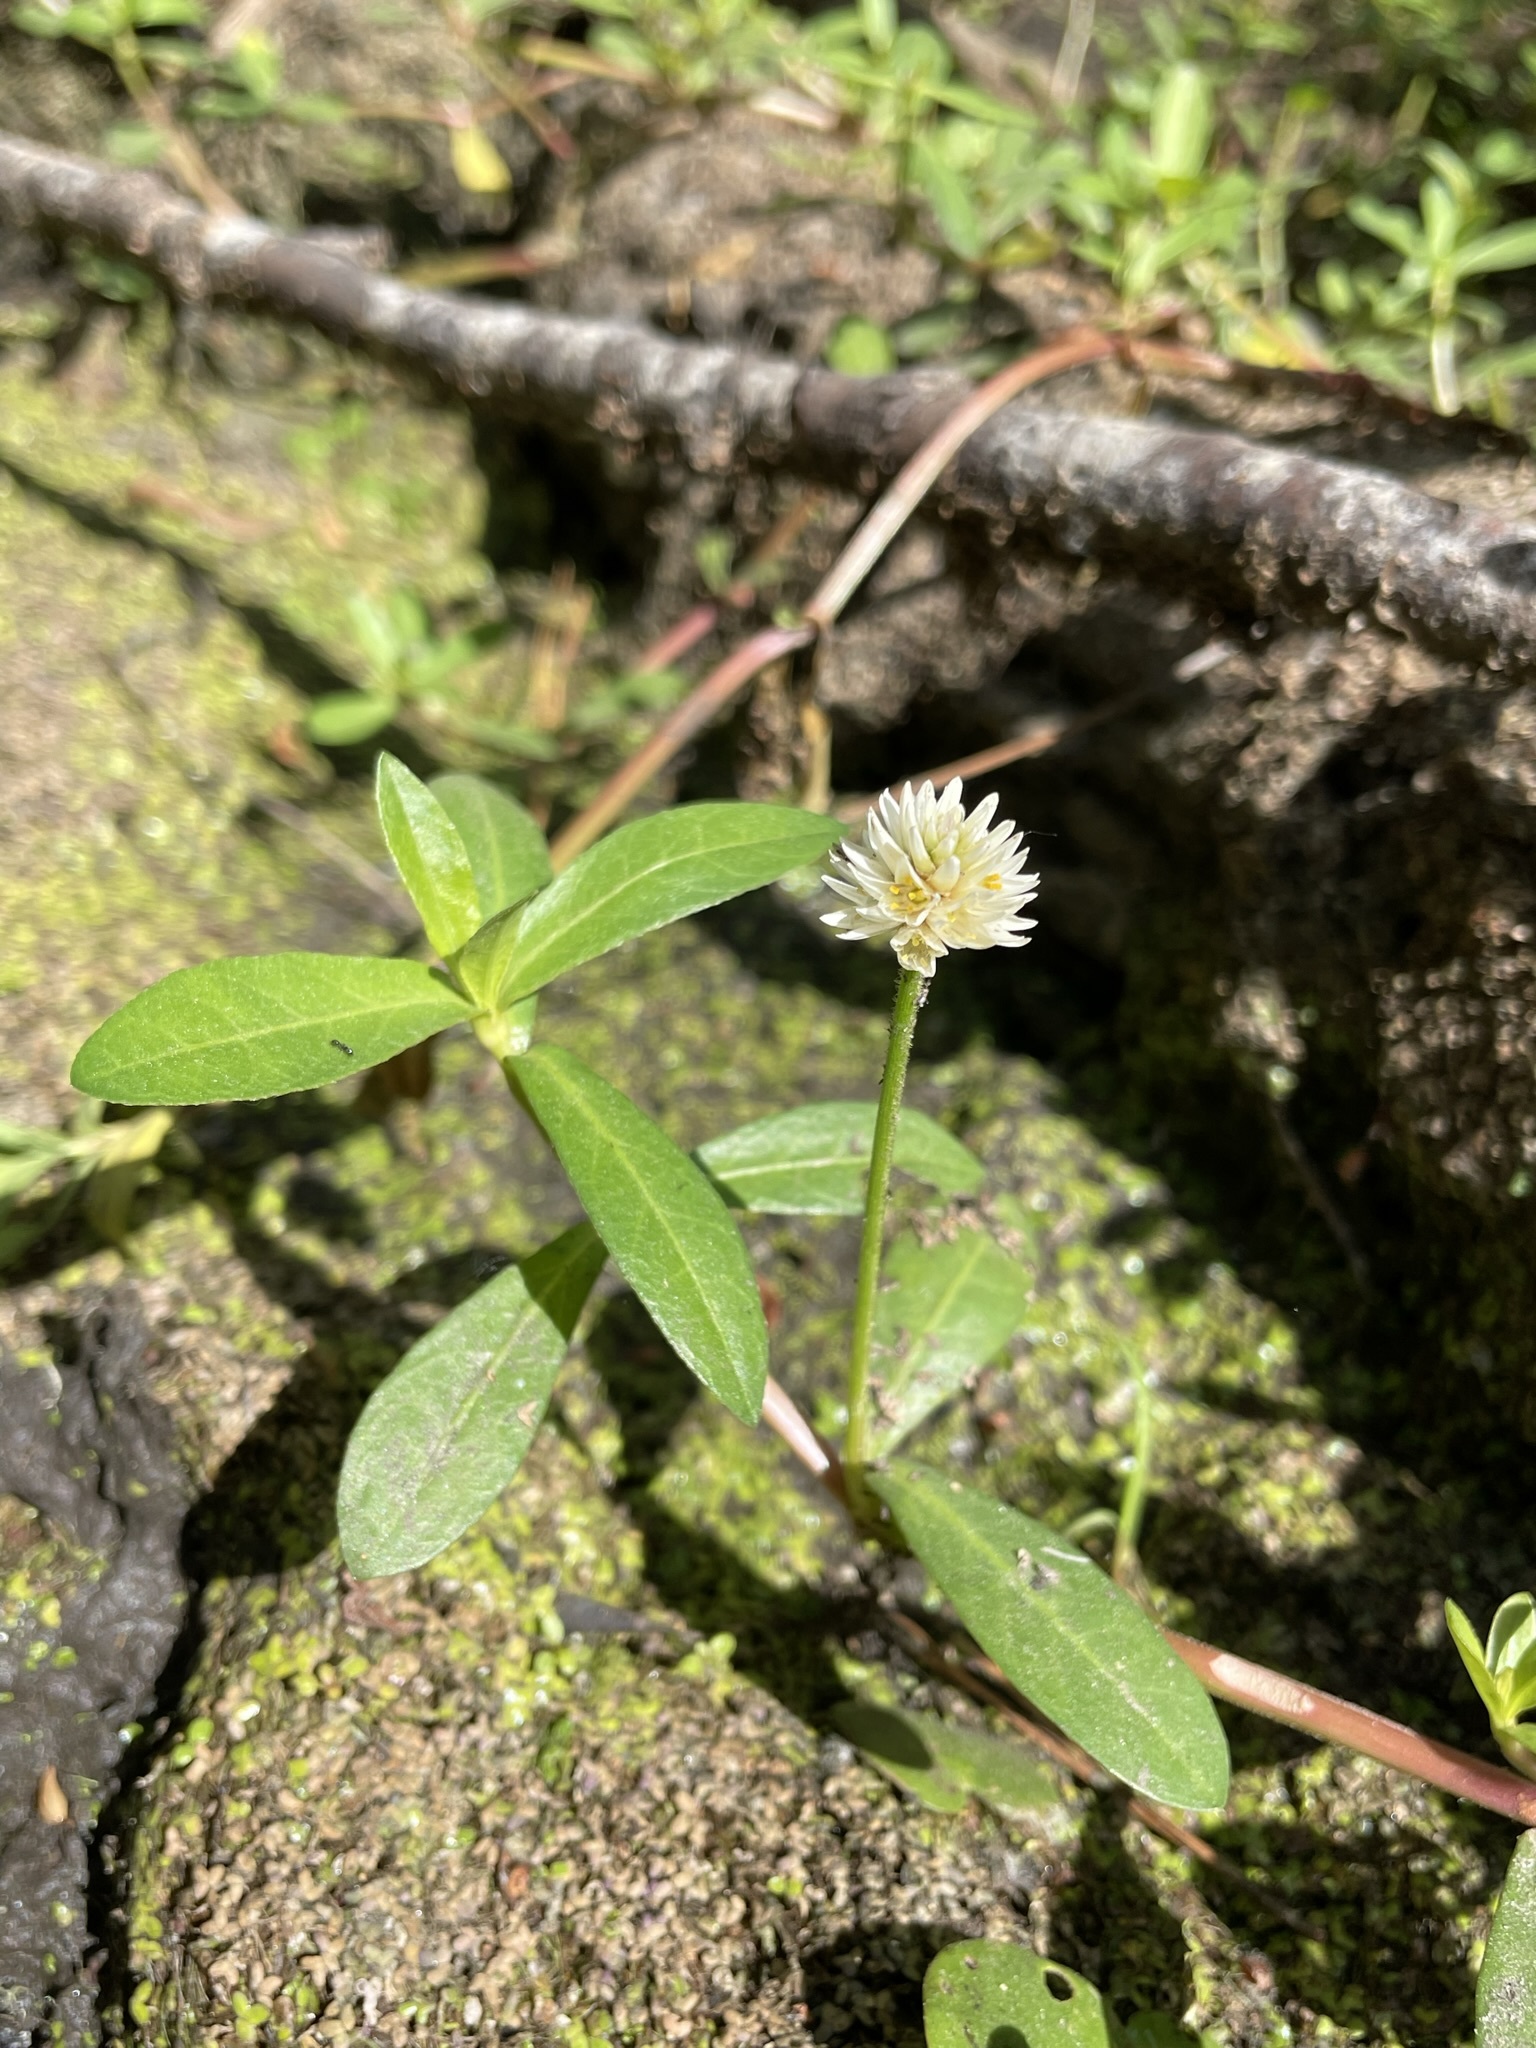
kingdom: Plantae
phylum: Tracheophyta
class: Magnoliopsida
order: Caryophyllales
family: Amaranthaceae
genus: Alternanthera
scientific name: Alternanthera philoxeroides
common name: Alligatorweed
